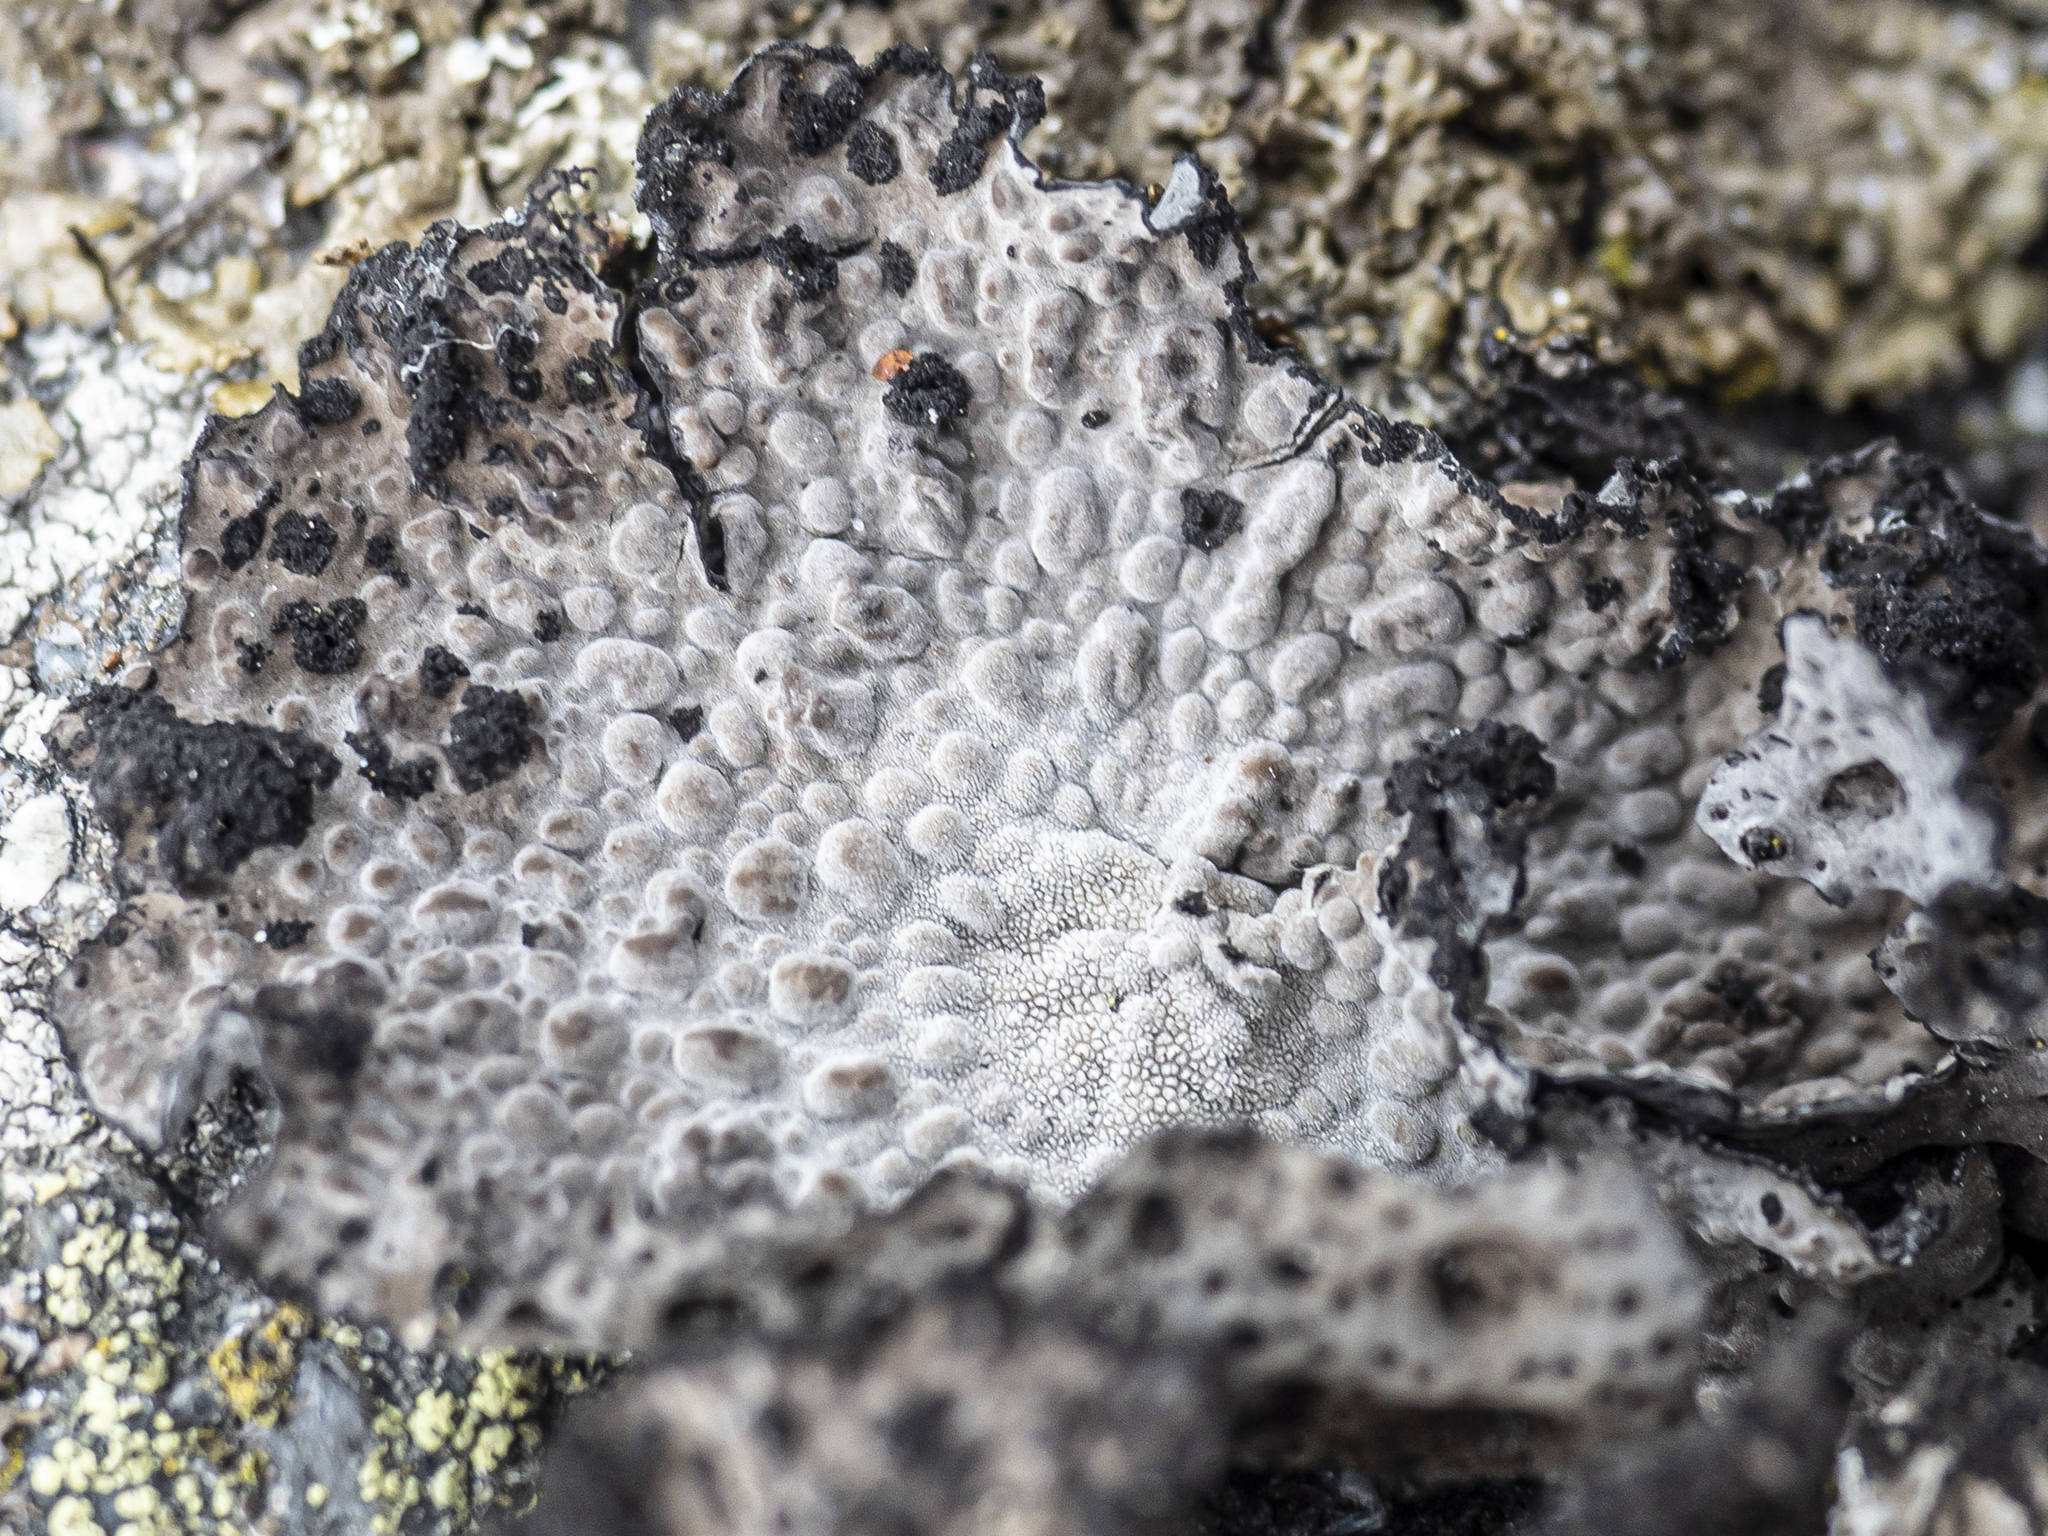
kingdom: Fungi
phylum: Ascomycota
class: Lecanoromycetes
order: Umbilicariales
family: Umbilicariaceae
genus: Lasallia
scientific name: Lasallia pustulata
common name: Blistered toadskin lichen
